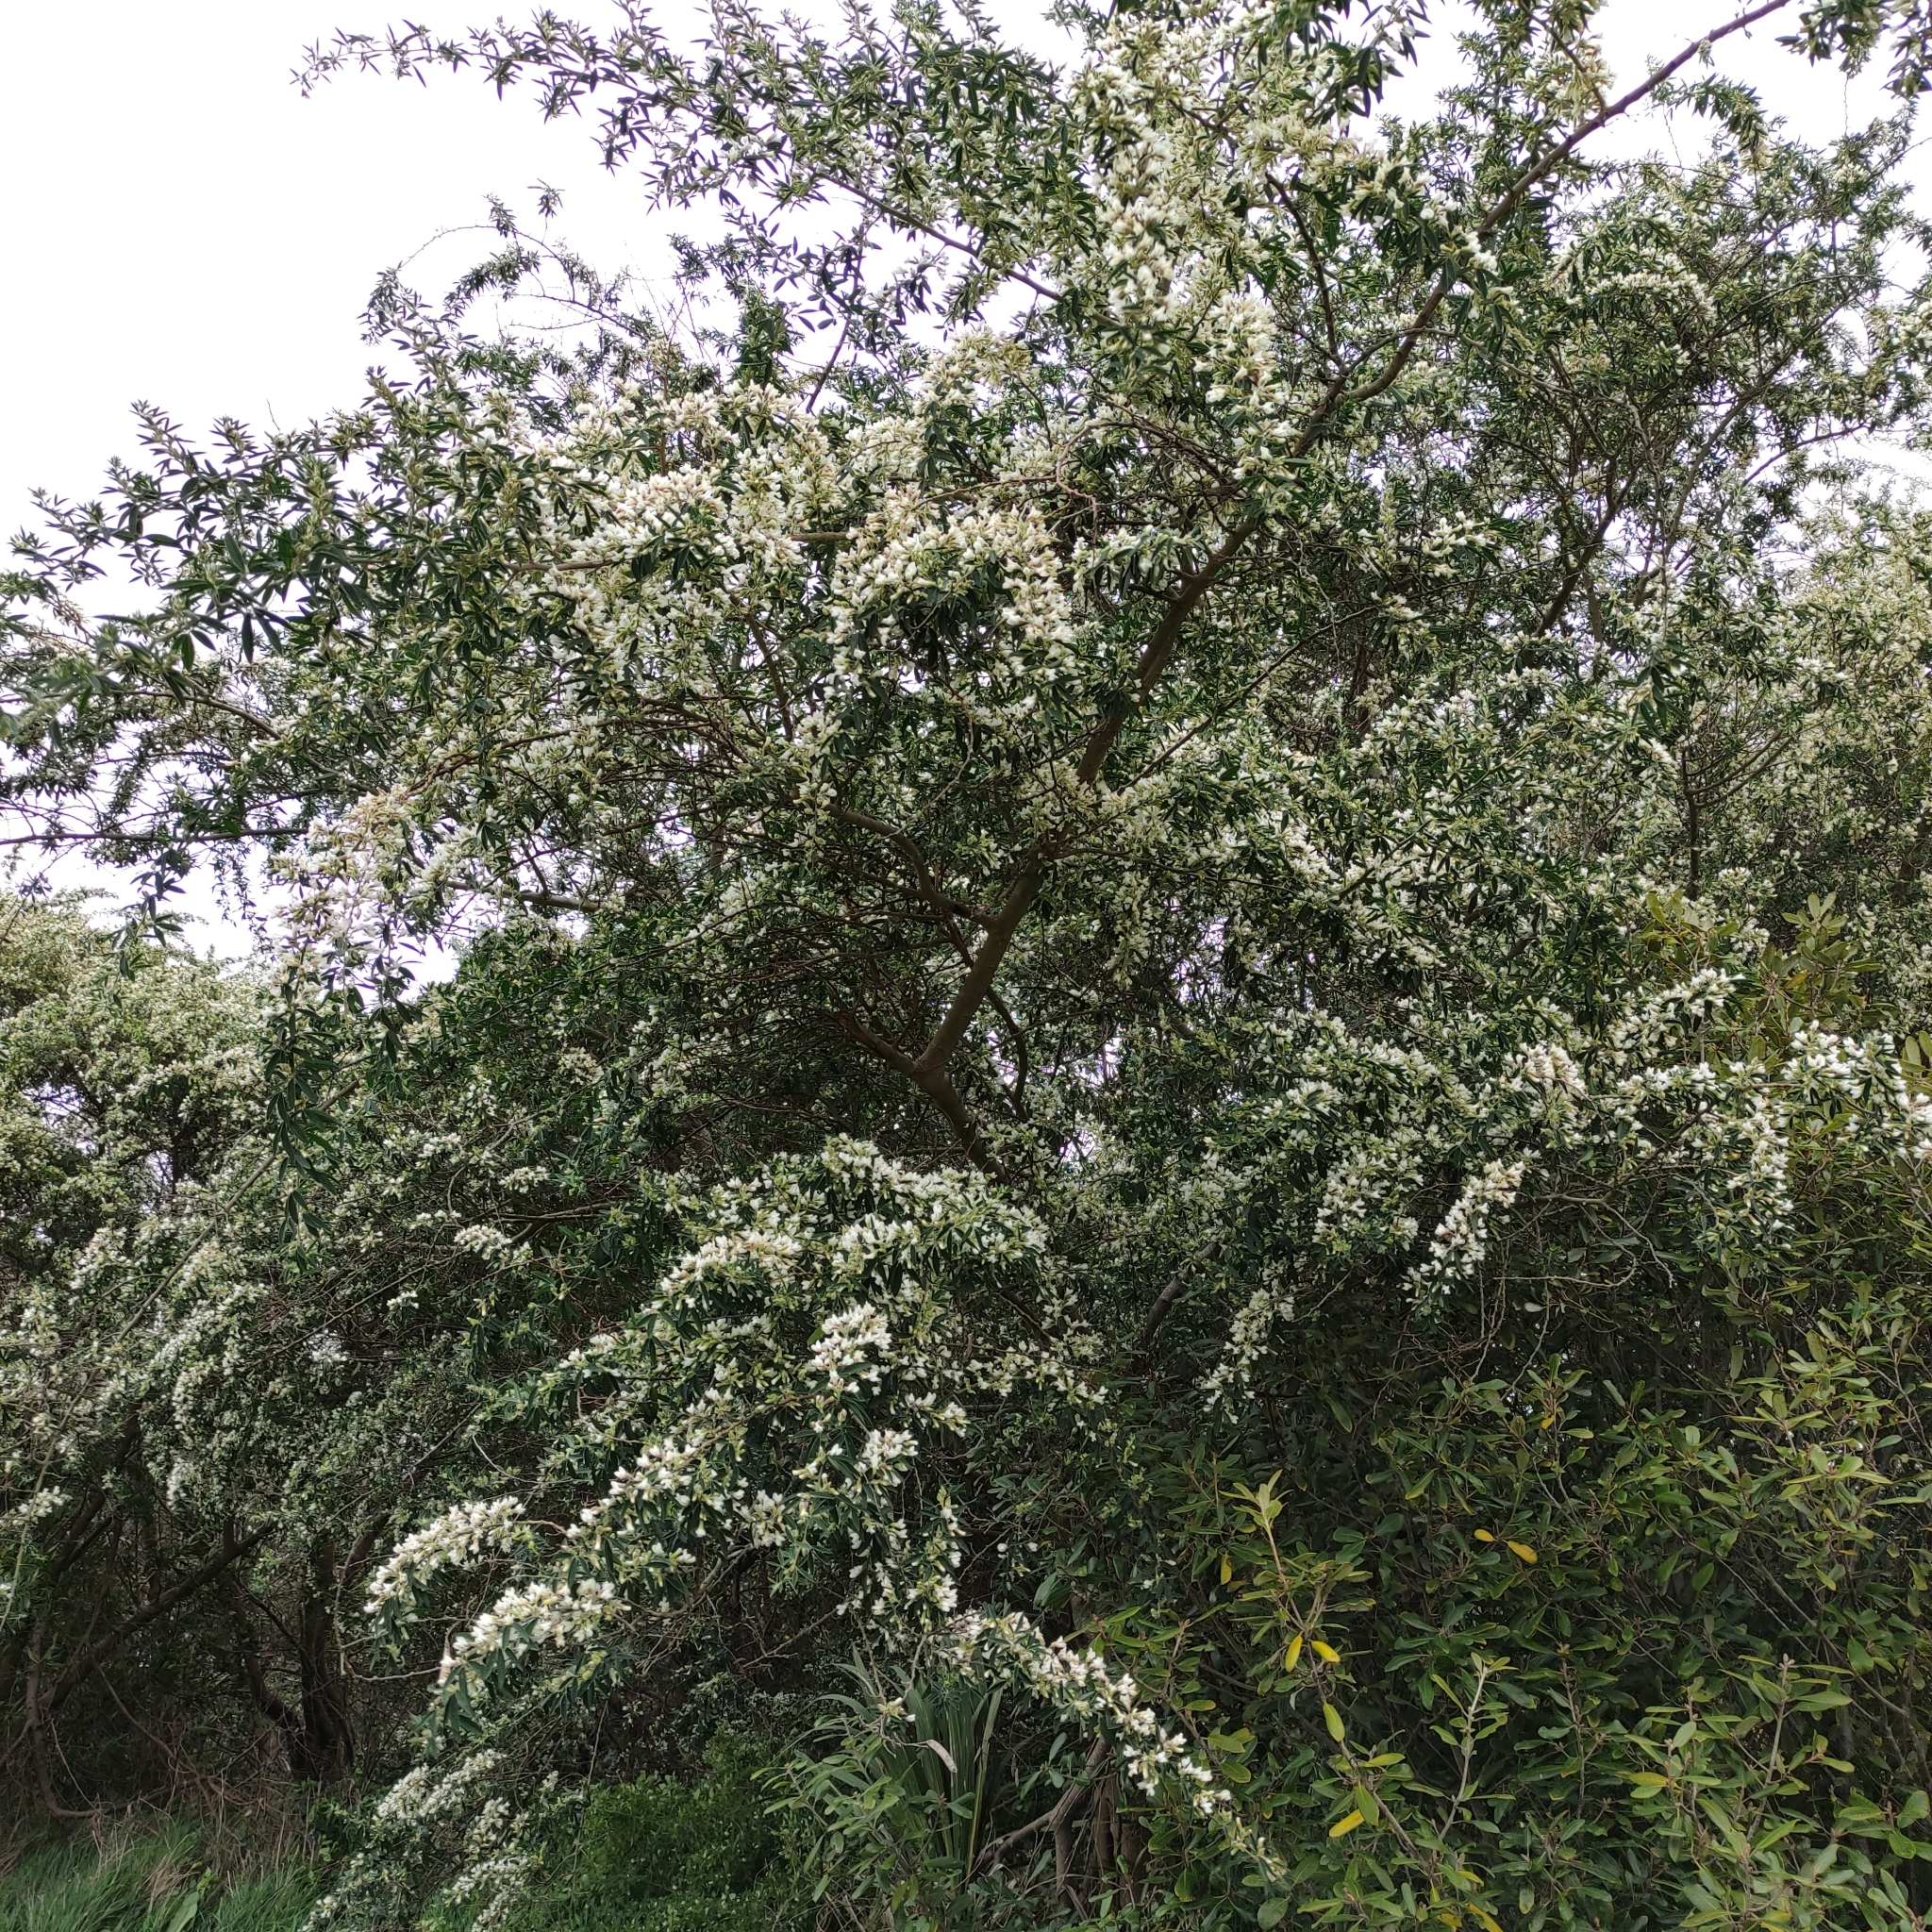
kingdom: Plantae
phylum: Tracheophyta
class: Magnoliopsida
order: Fabales
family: Fabaceae
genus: Chamaecytisus
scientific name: Chamaecytisus prolifer
